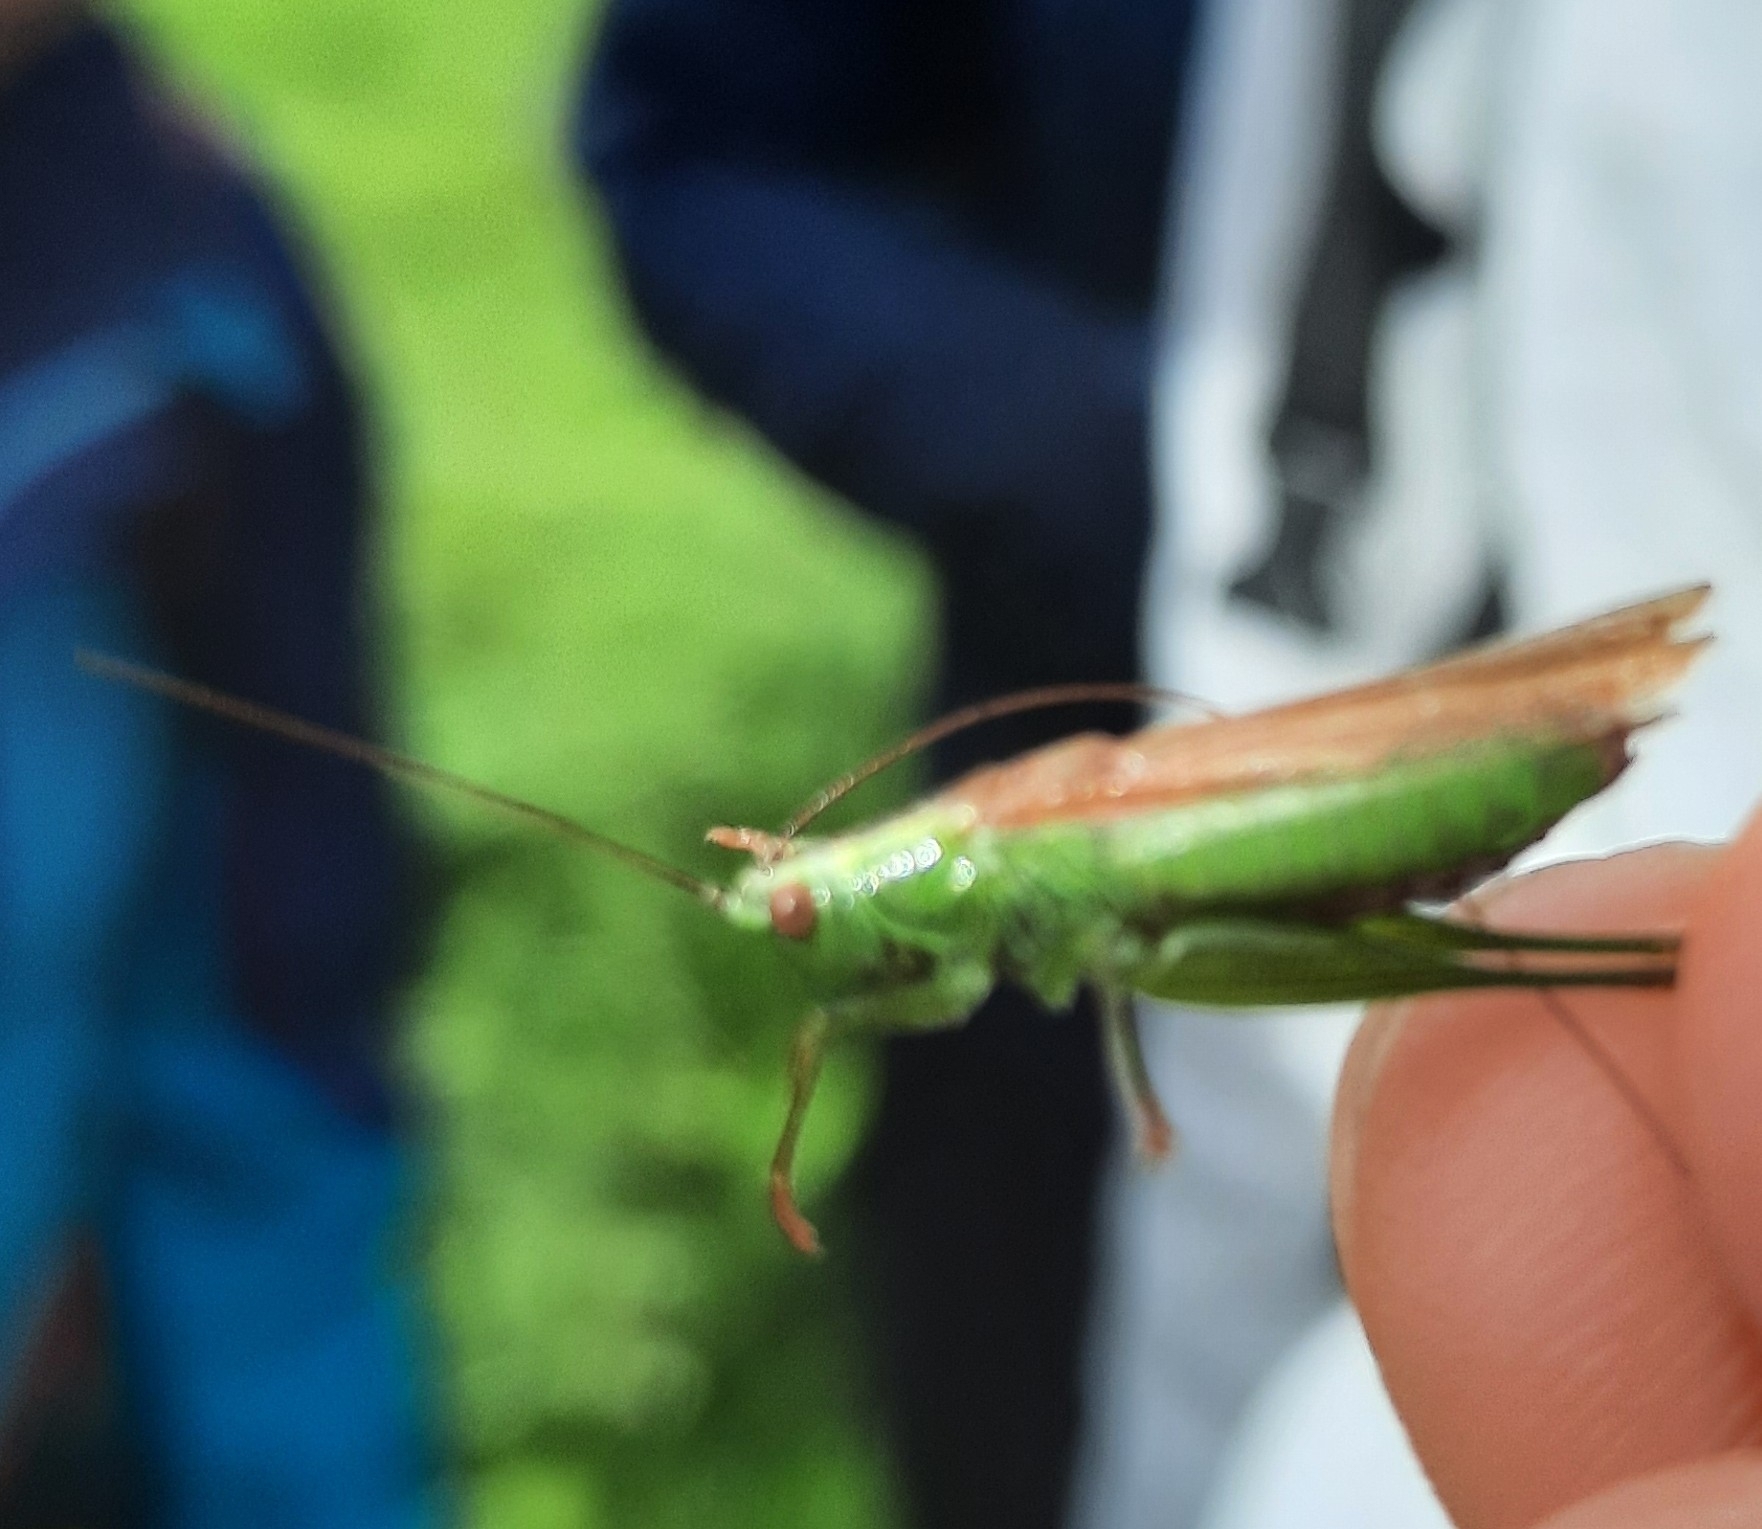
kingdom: Animalia
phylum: Arthropoda
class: Insecta
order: Orthoptera
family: Tettigoniidae
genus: Conocephalus
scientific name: Conocephalus fuscus
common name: Long-winged conehead
